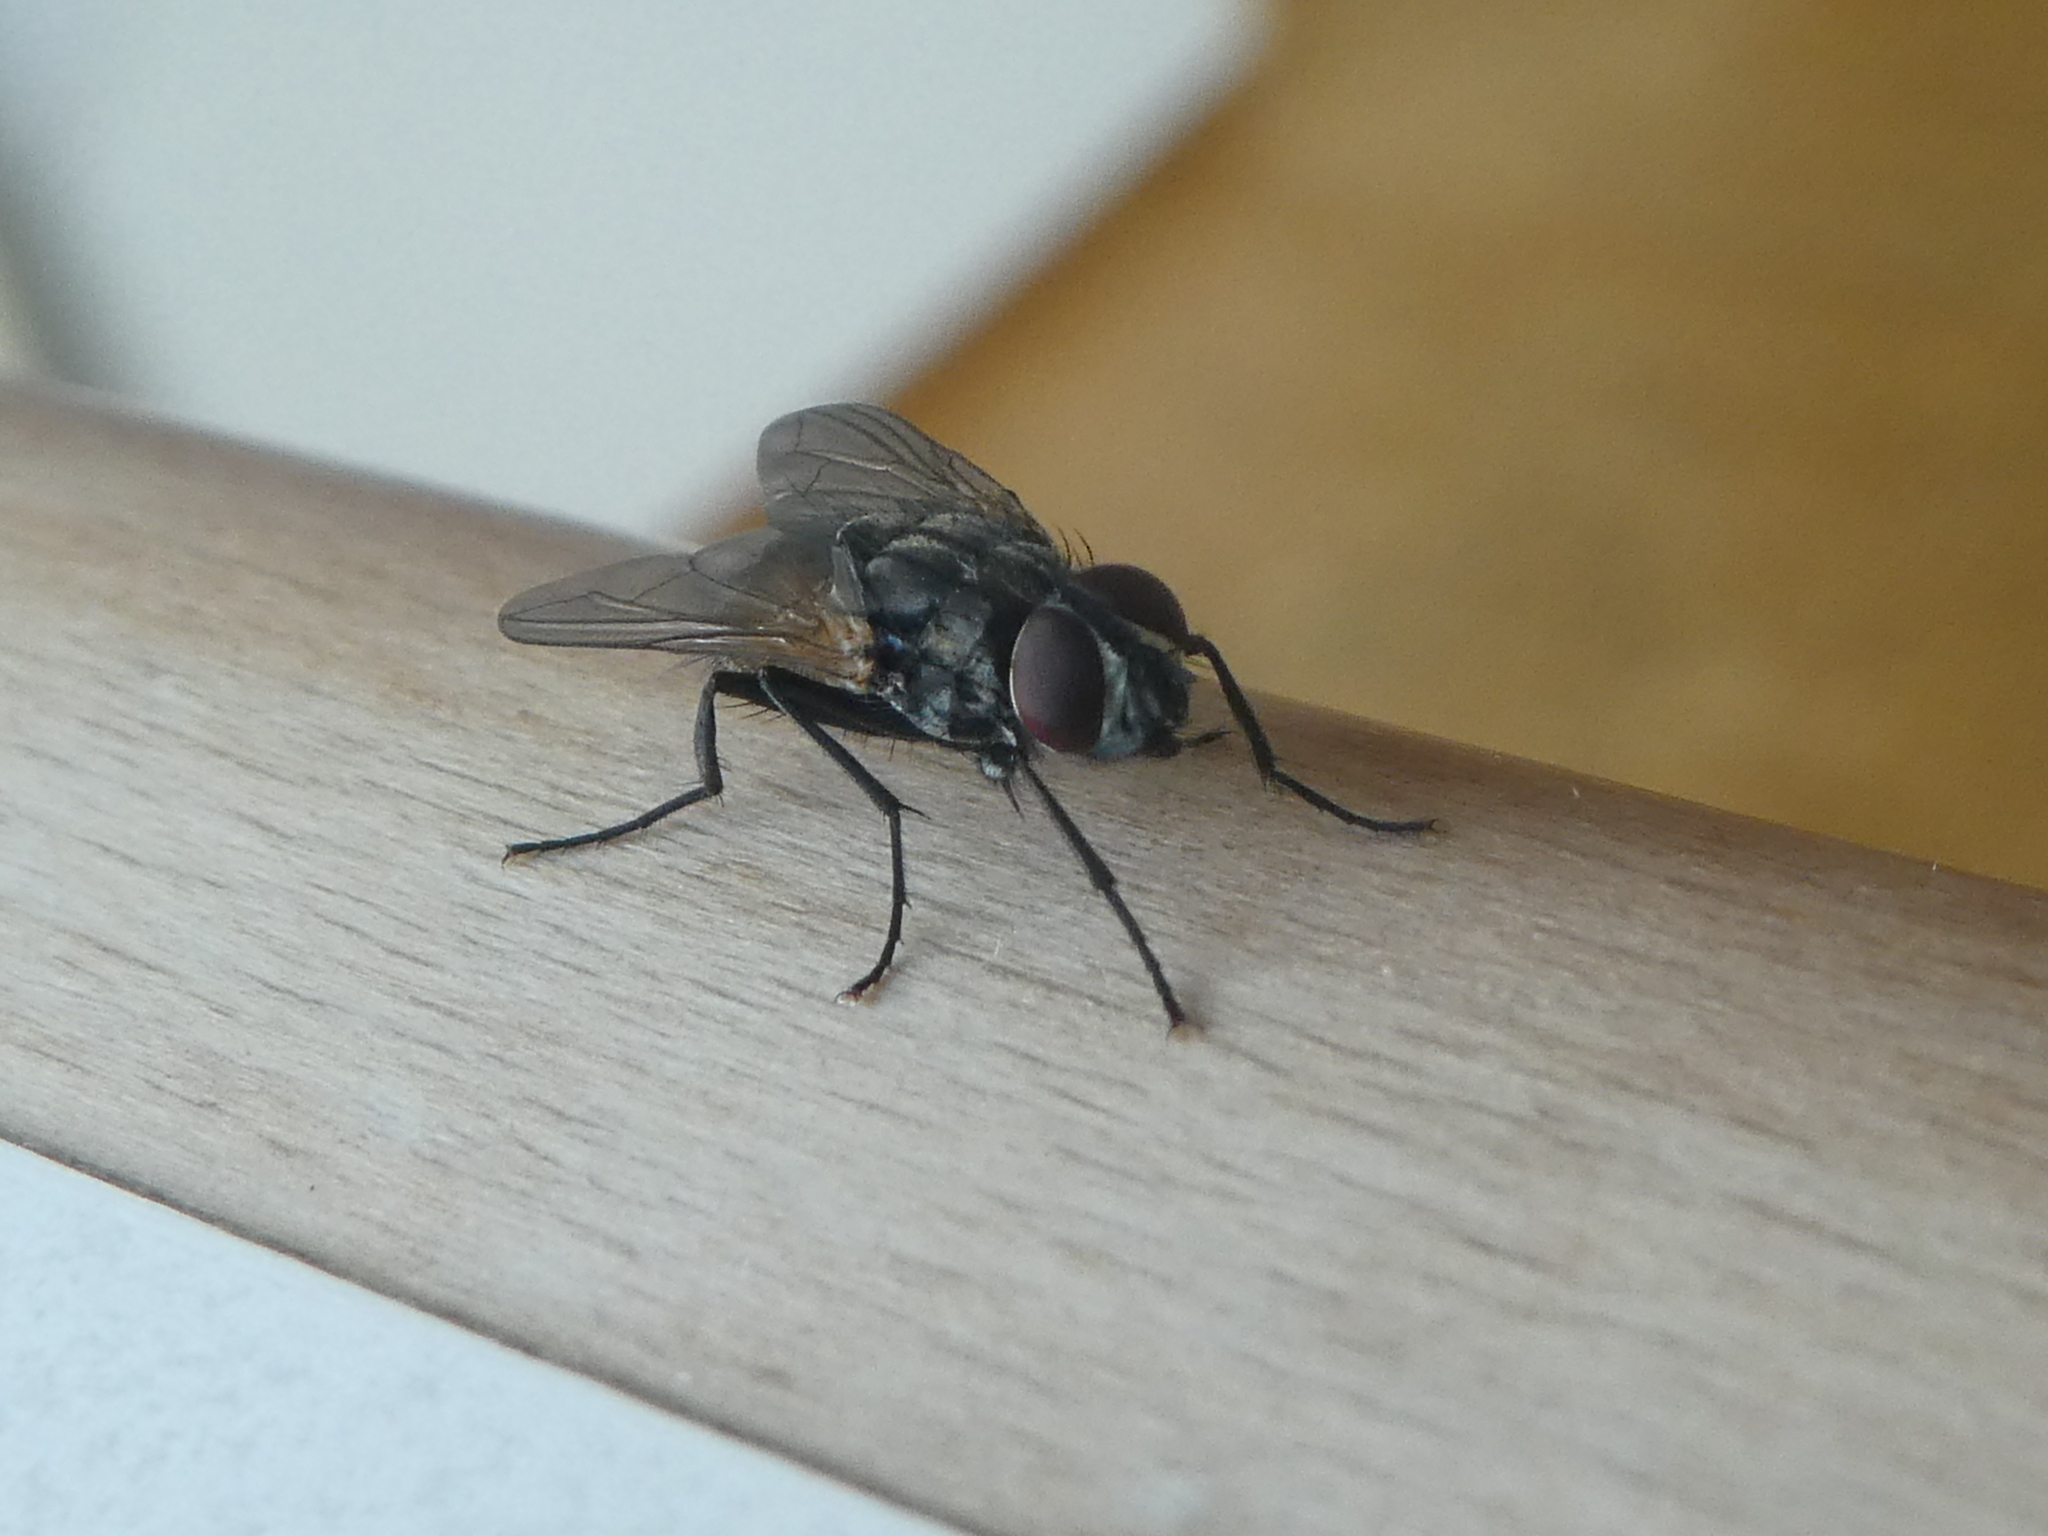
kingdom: Animalia
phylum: Arthropoda
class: Insecta
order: Diptera
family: Muscidae
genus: Musca
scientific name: Musca domestica
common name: House fly
